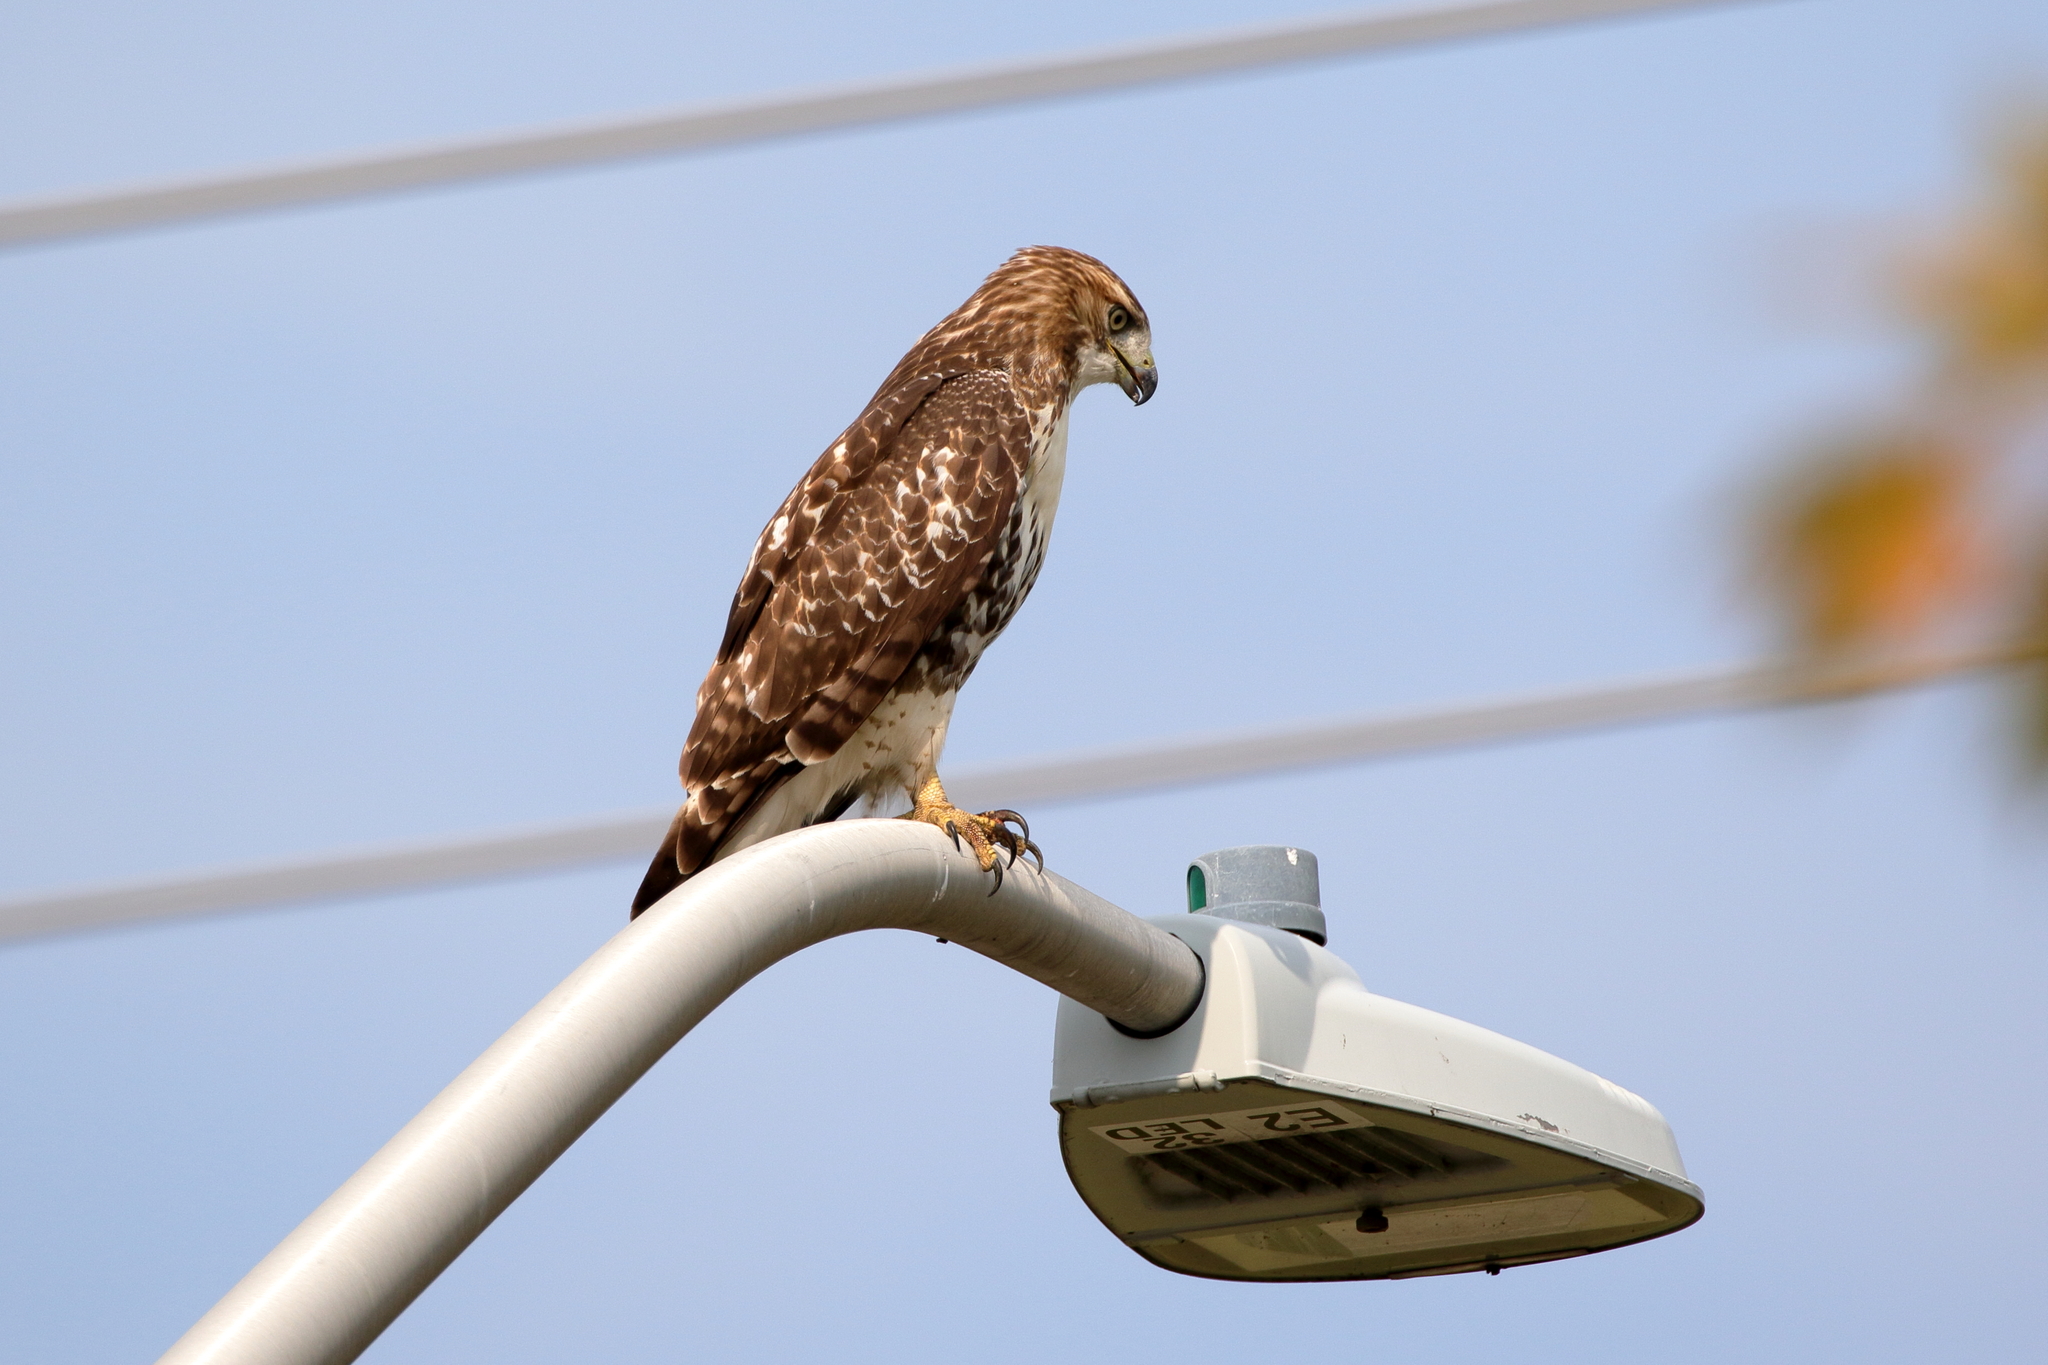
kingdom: Animalia
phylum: Chordata
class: Aves
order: Accipitriformes
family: Accipitridae
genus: Buteo
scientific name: Buteo jamaicensis
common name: Red-tailed hawk
